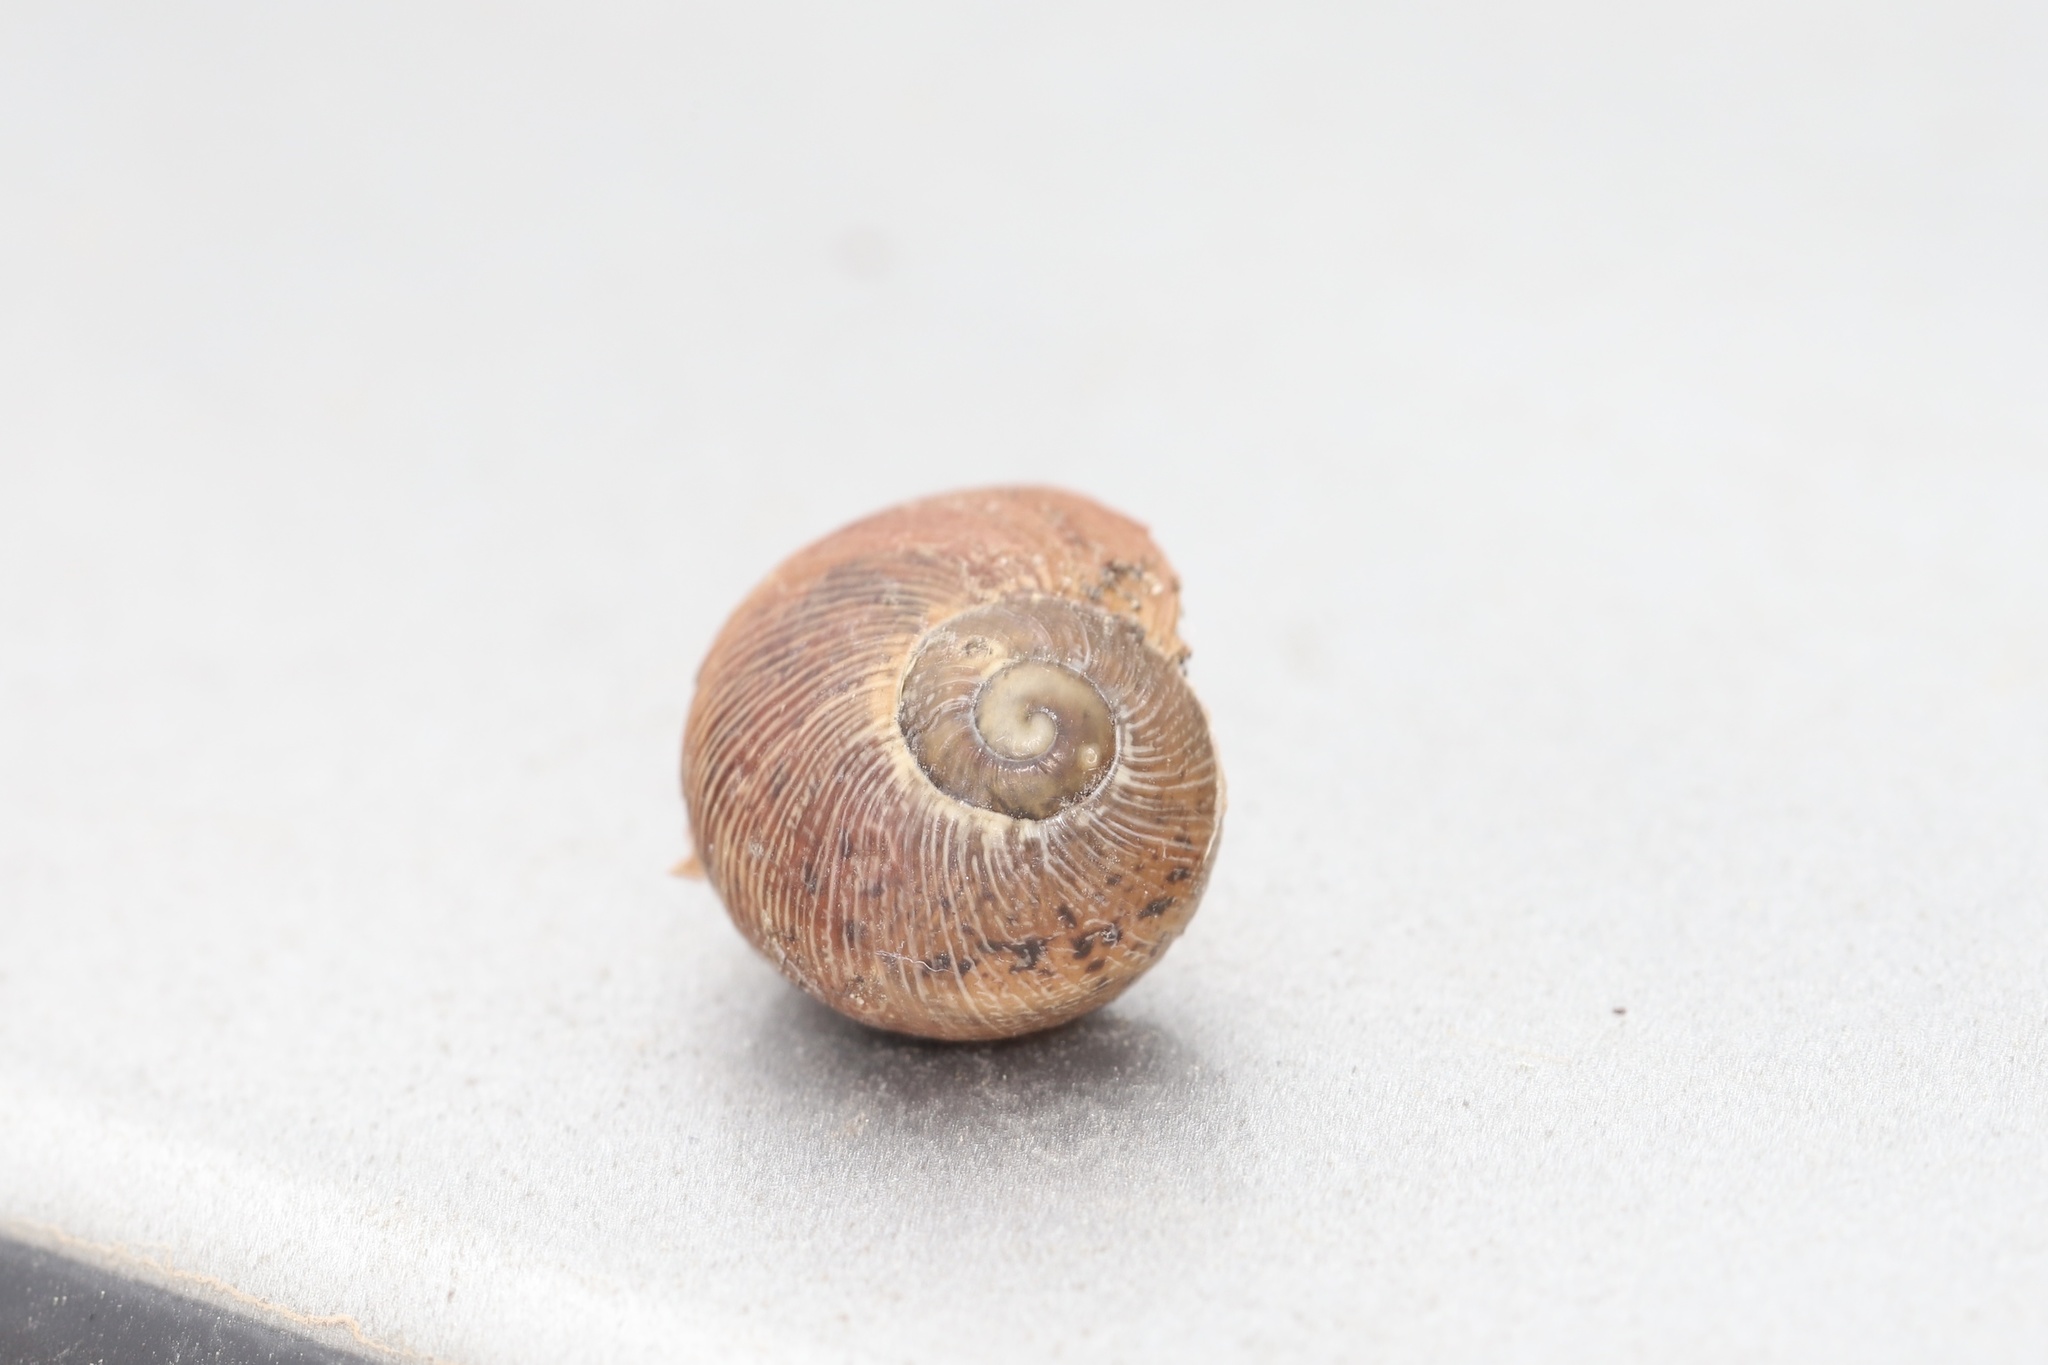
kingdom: Animalia
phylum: Mollusca
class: Gastropoda
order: Stylommatophora
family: Helicidae
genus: Cornu
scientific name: Cornu aspersum
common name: Brown garden snail
